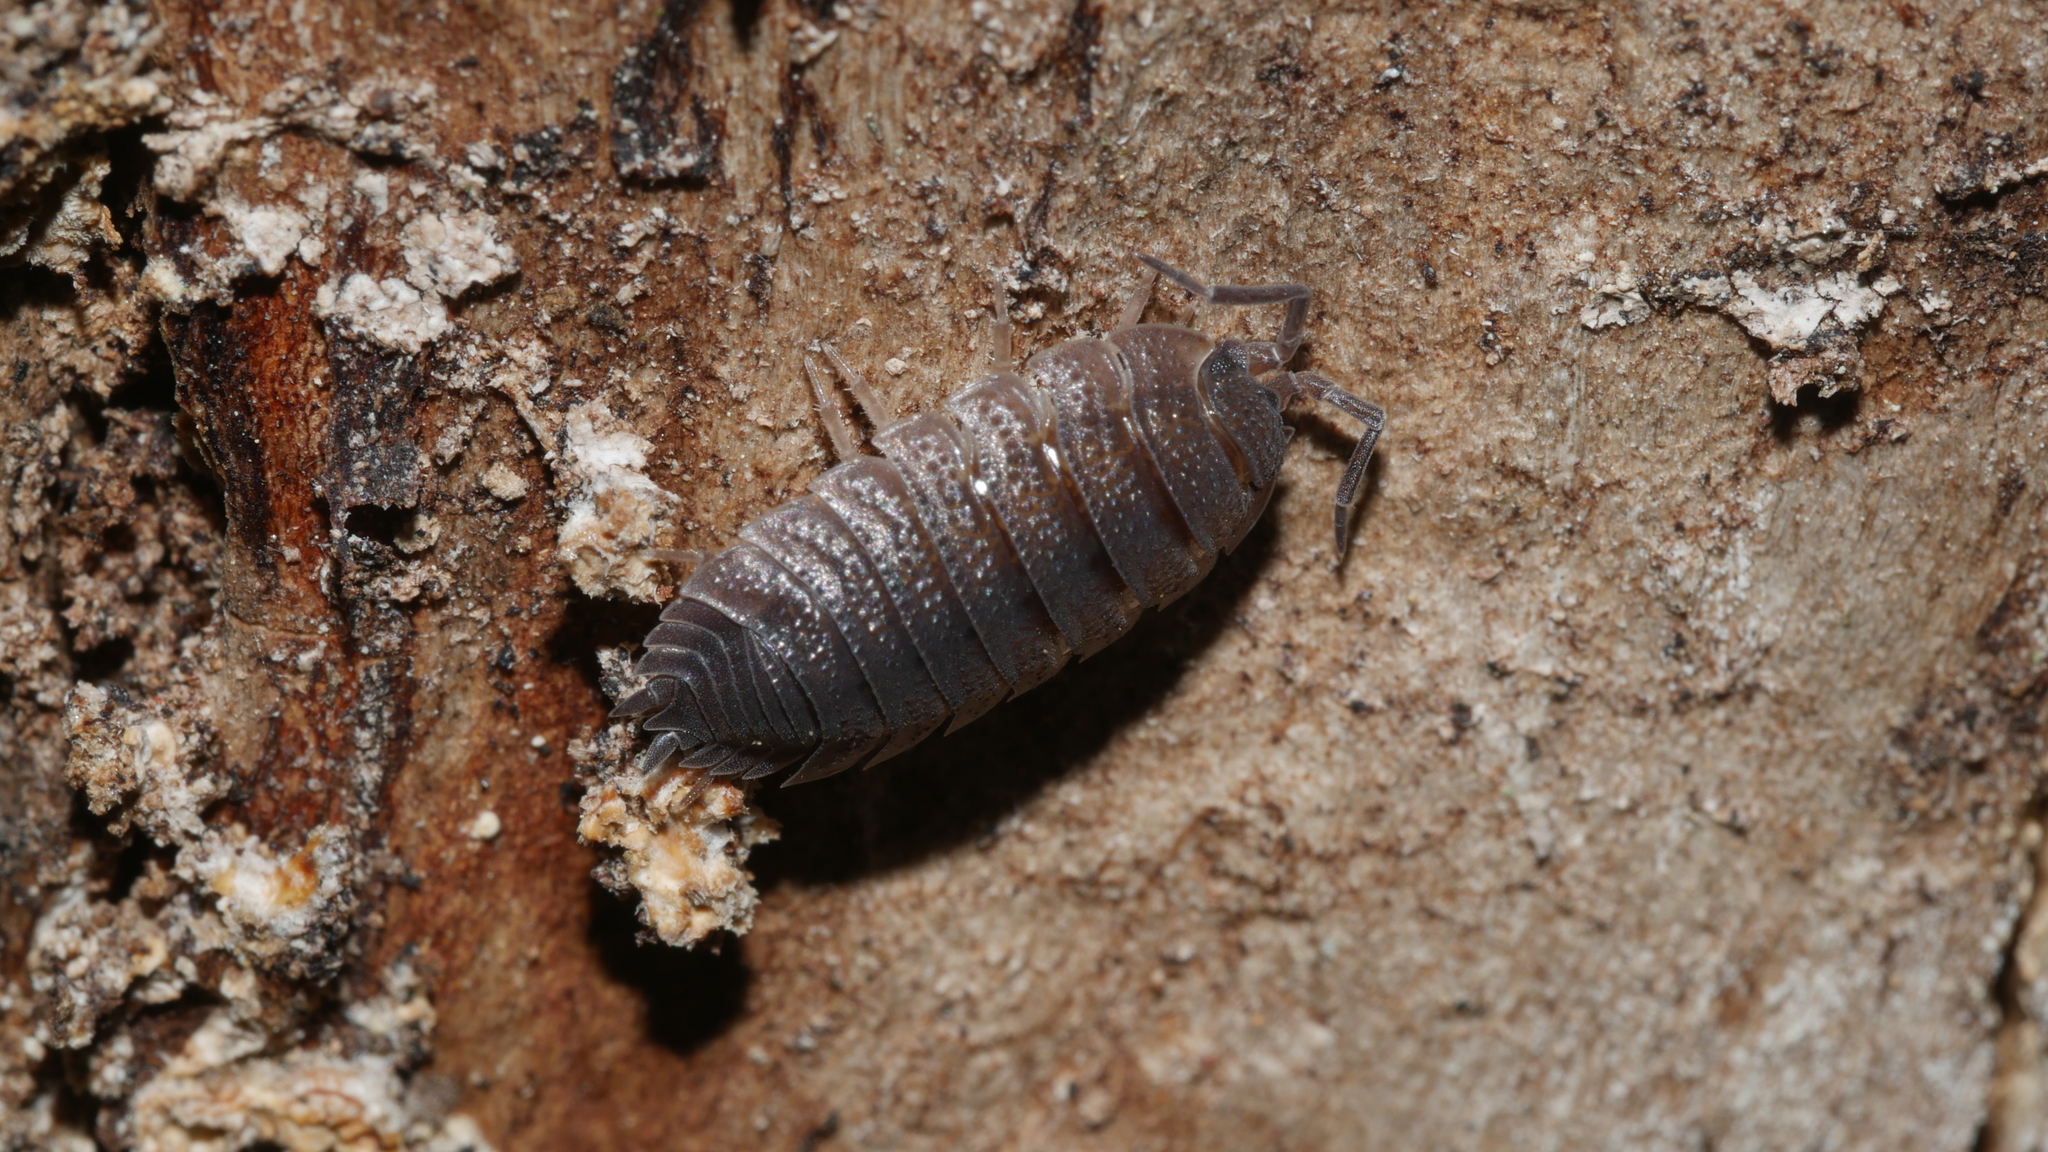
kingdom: Animalia
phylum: Arthropoda
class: Malacostraca
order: Isopoda
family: Porcellionidae
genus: Porcellio
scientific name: Porcellio scaber
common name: Common rough woodlouse
